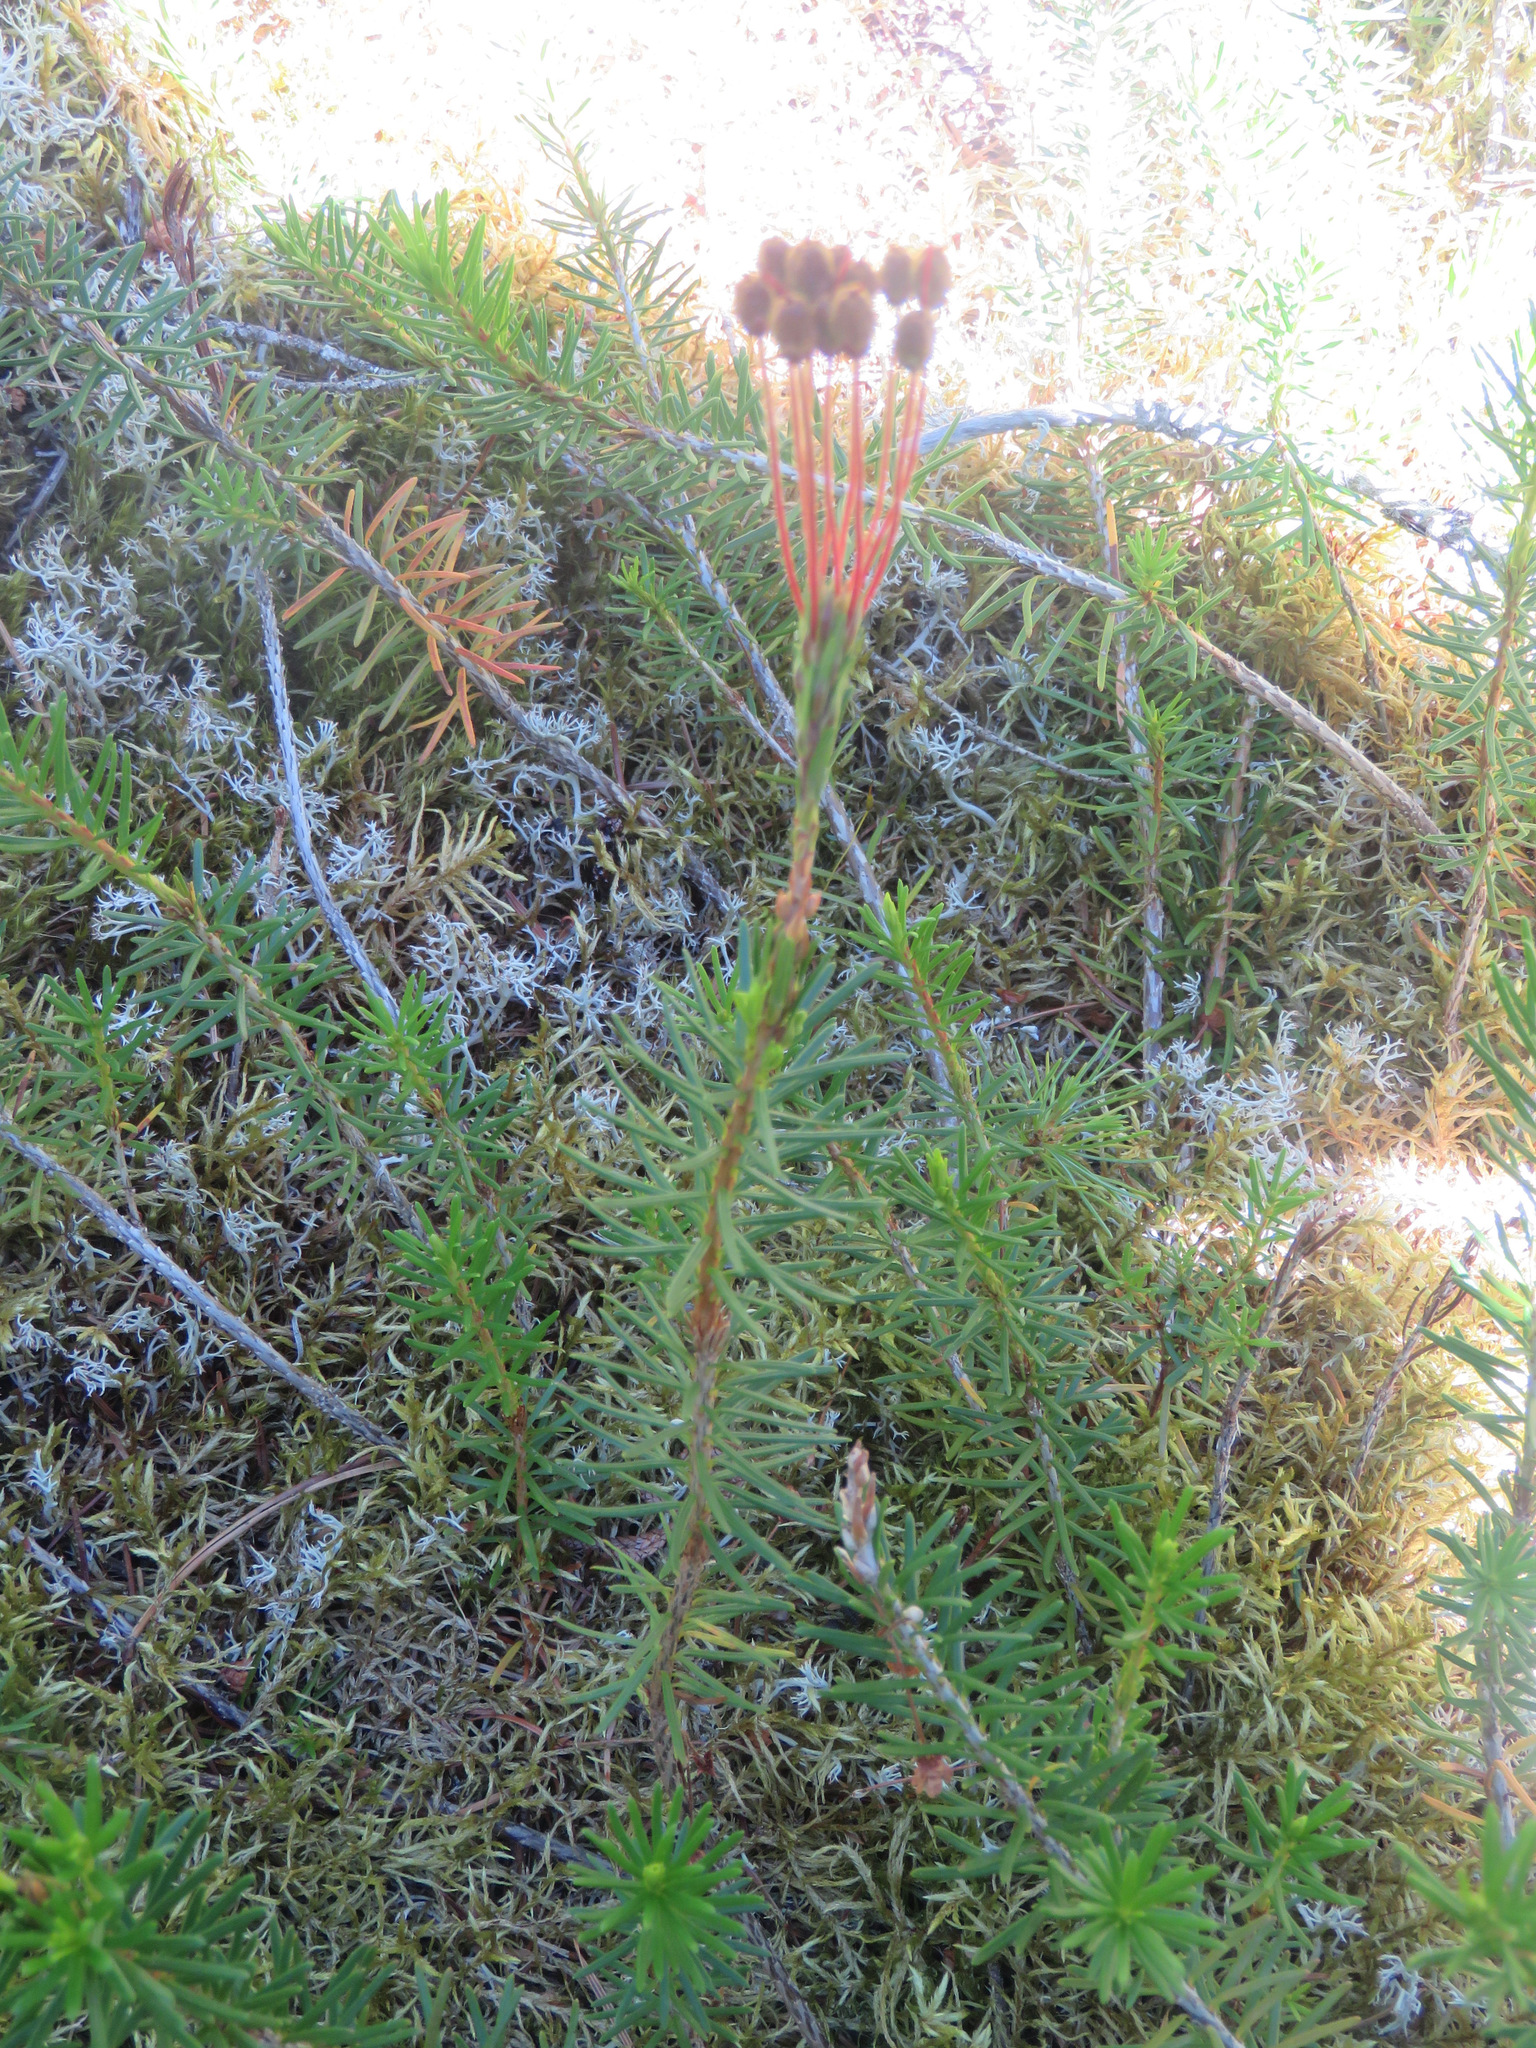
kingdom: Plantae
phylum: Tracheophyta
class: Magnoliopsida
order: Ericales
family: Ericaceae
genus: Phyllodoce
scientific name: Phyllodoce empetriformis
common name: Pink mountain heather
